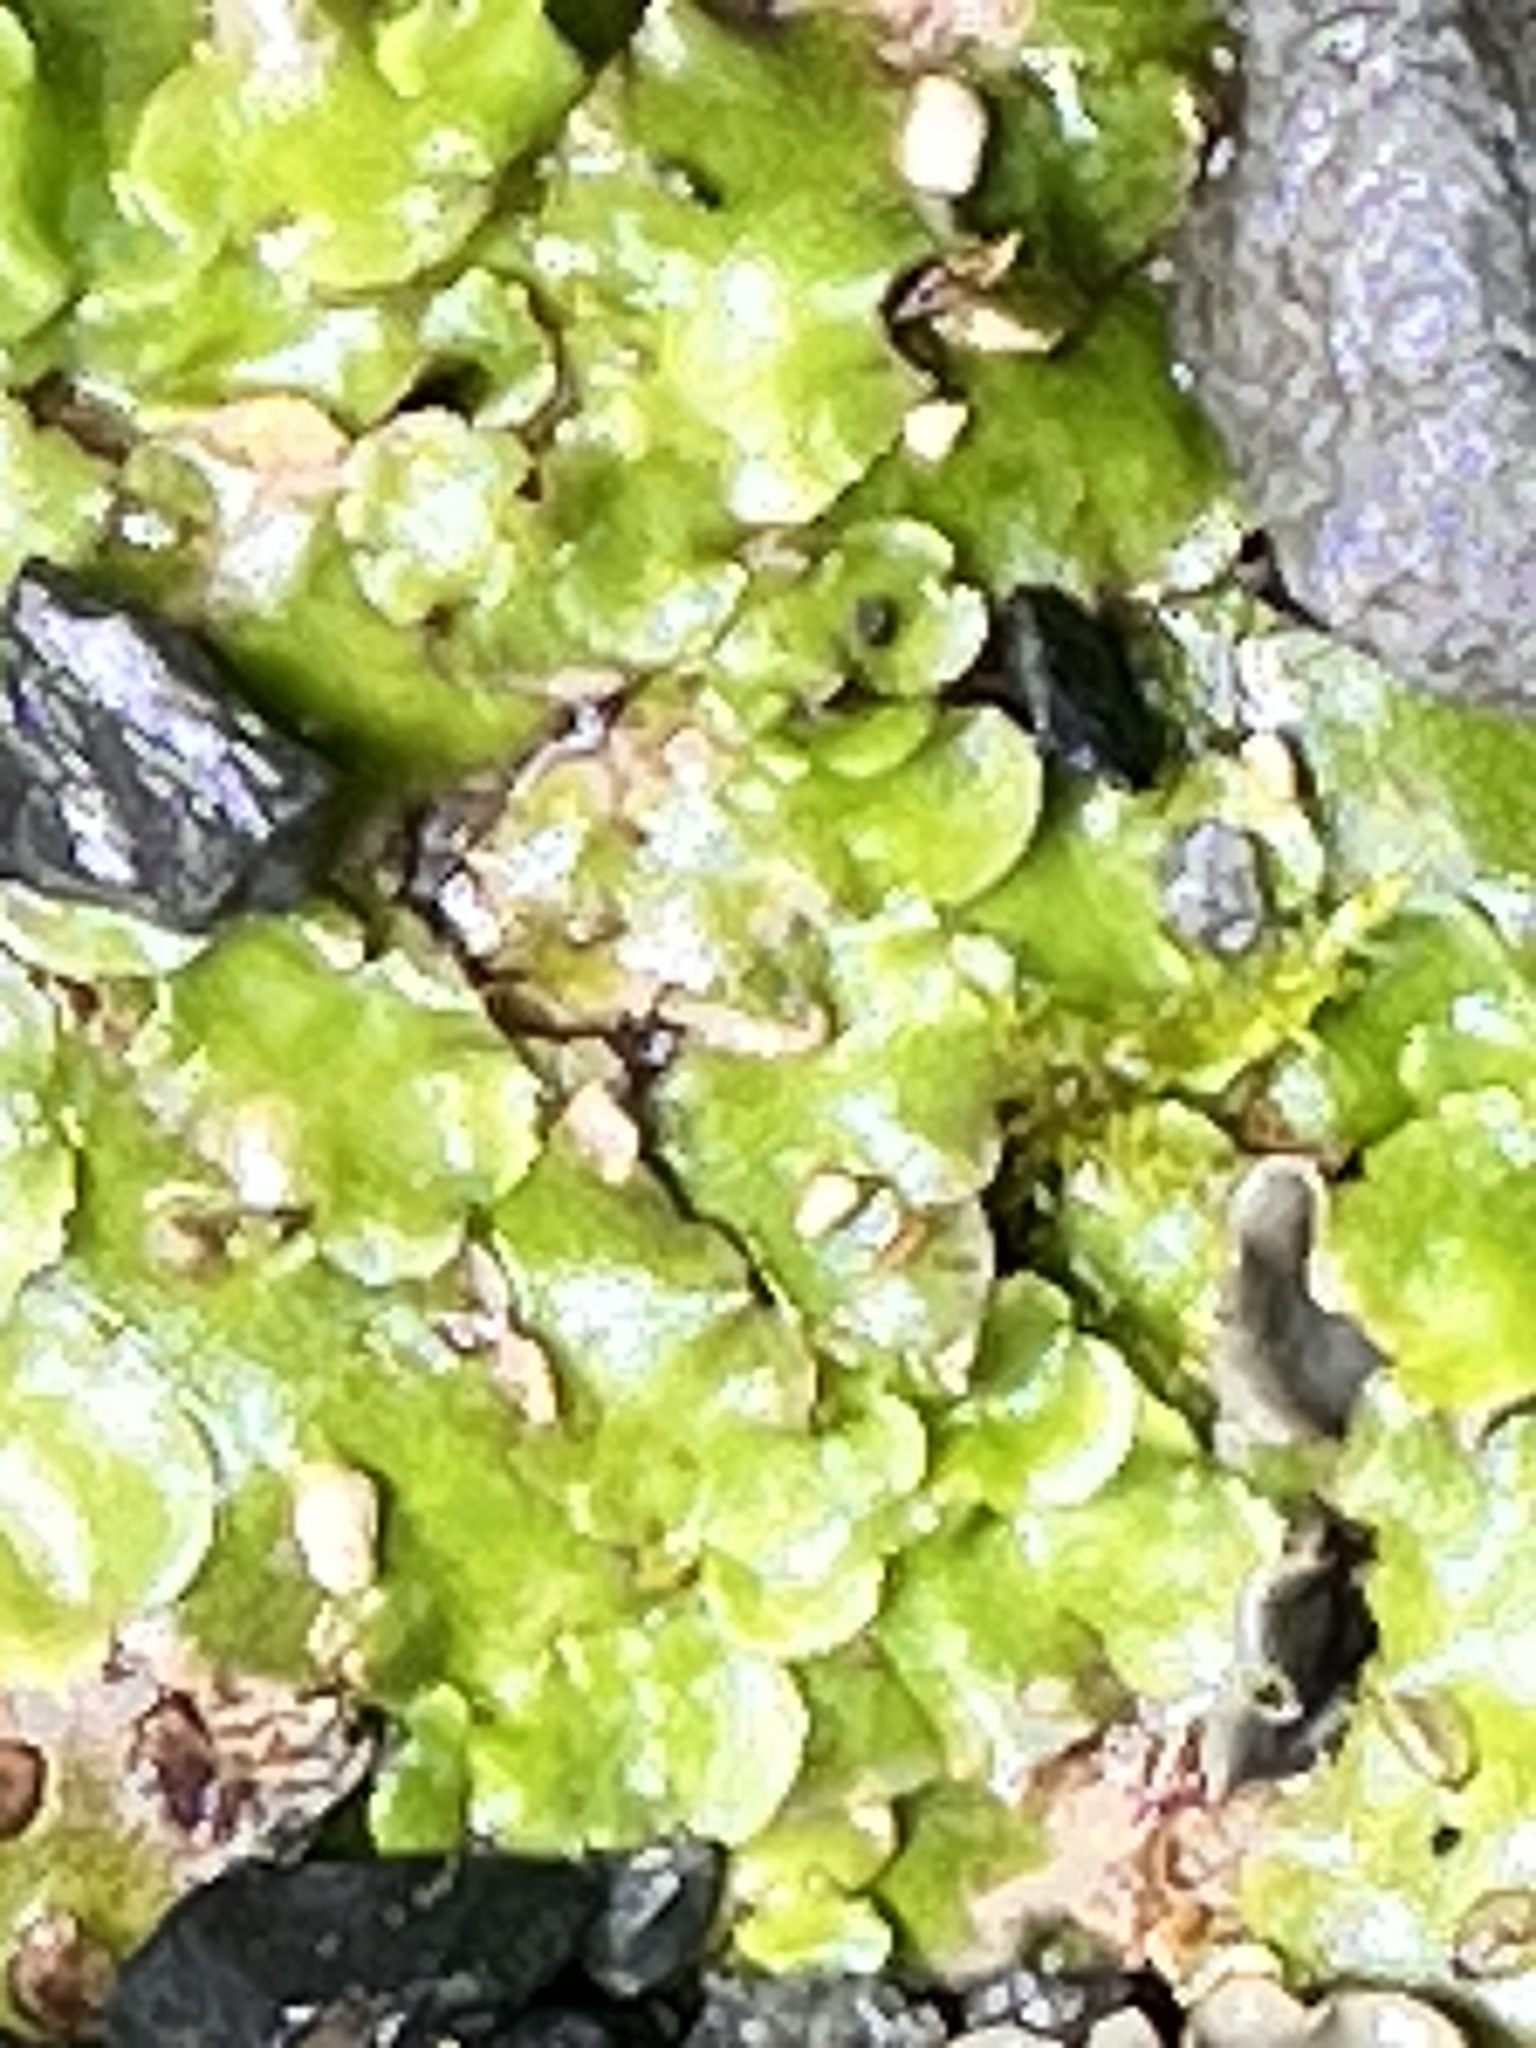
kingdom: Plantae
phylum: Marchantiophyta
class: Marchantiopsida
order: Lunulariales
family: Lunulariaceae
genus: Lunularia
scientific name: Lunularia cruciata
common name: Crescent-cup liverwort
